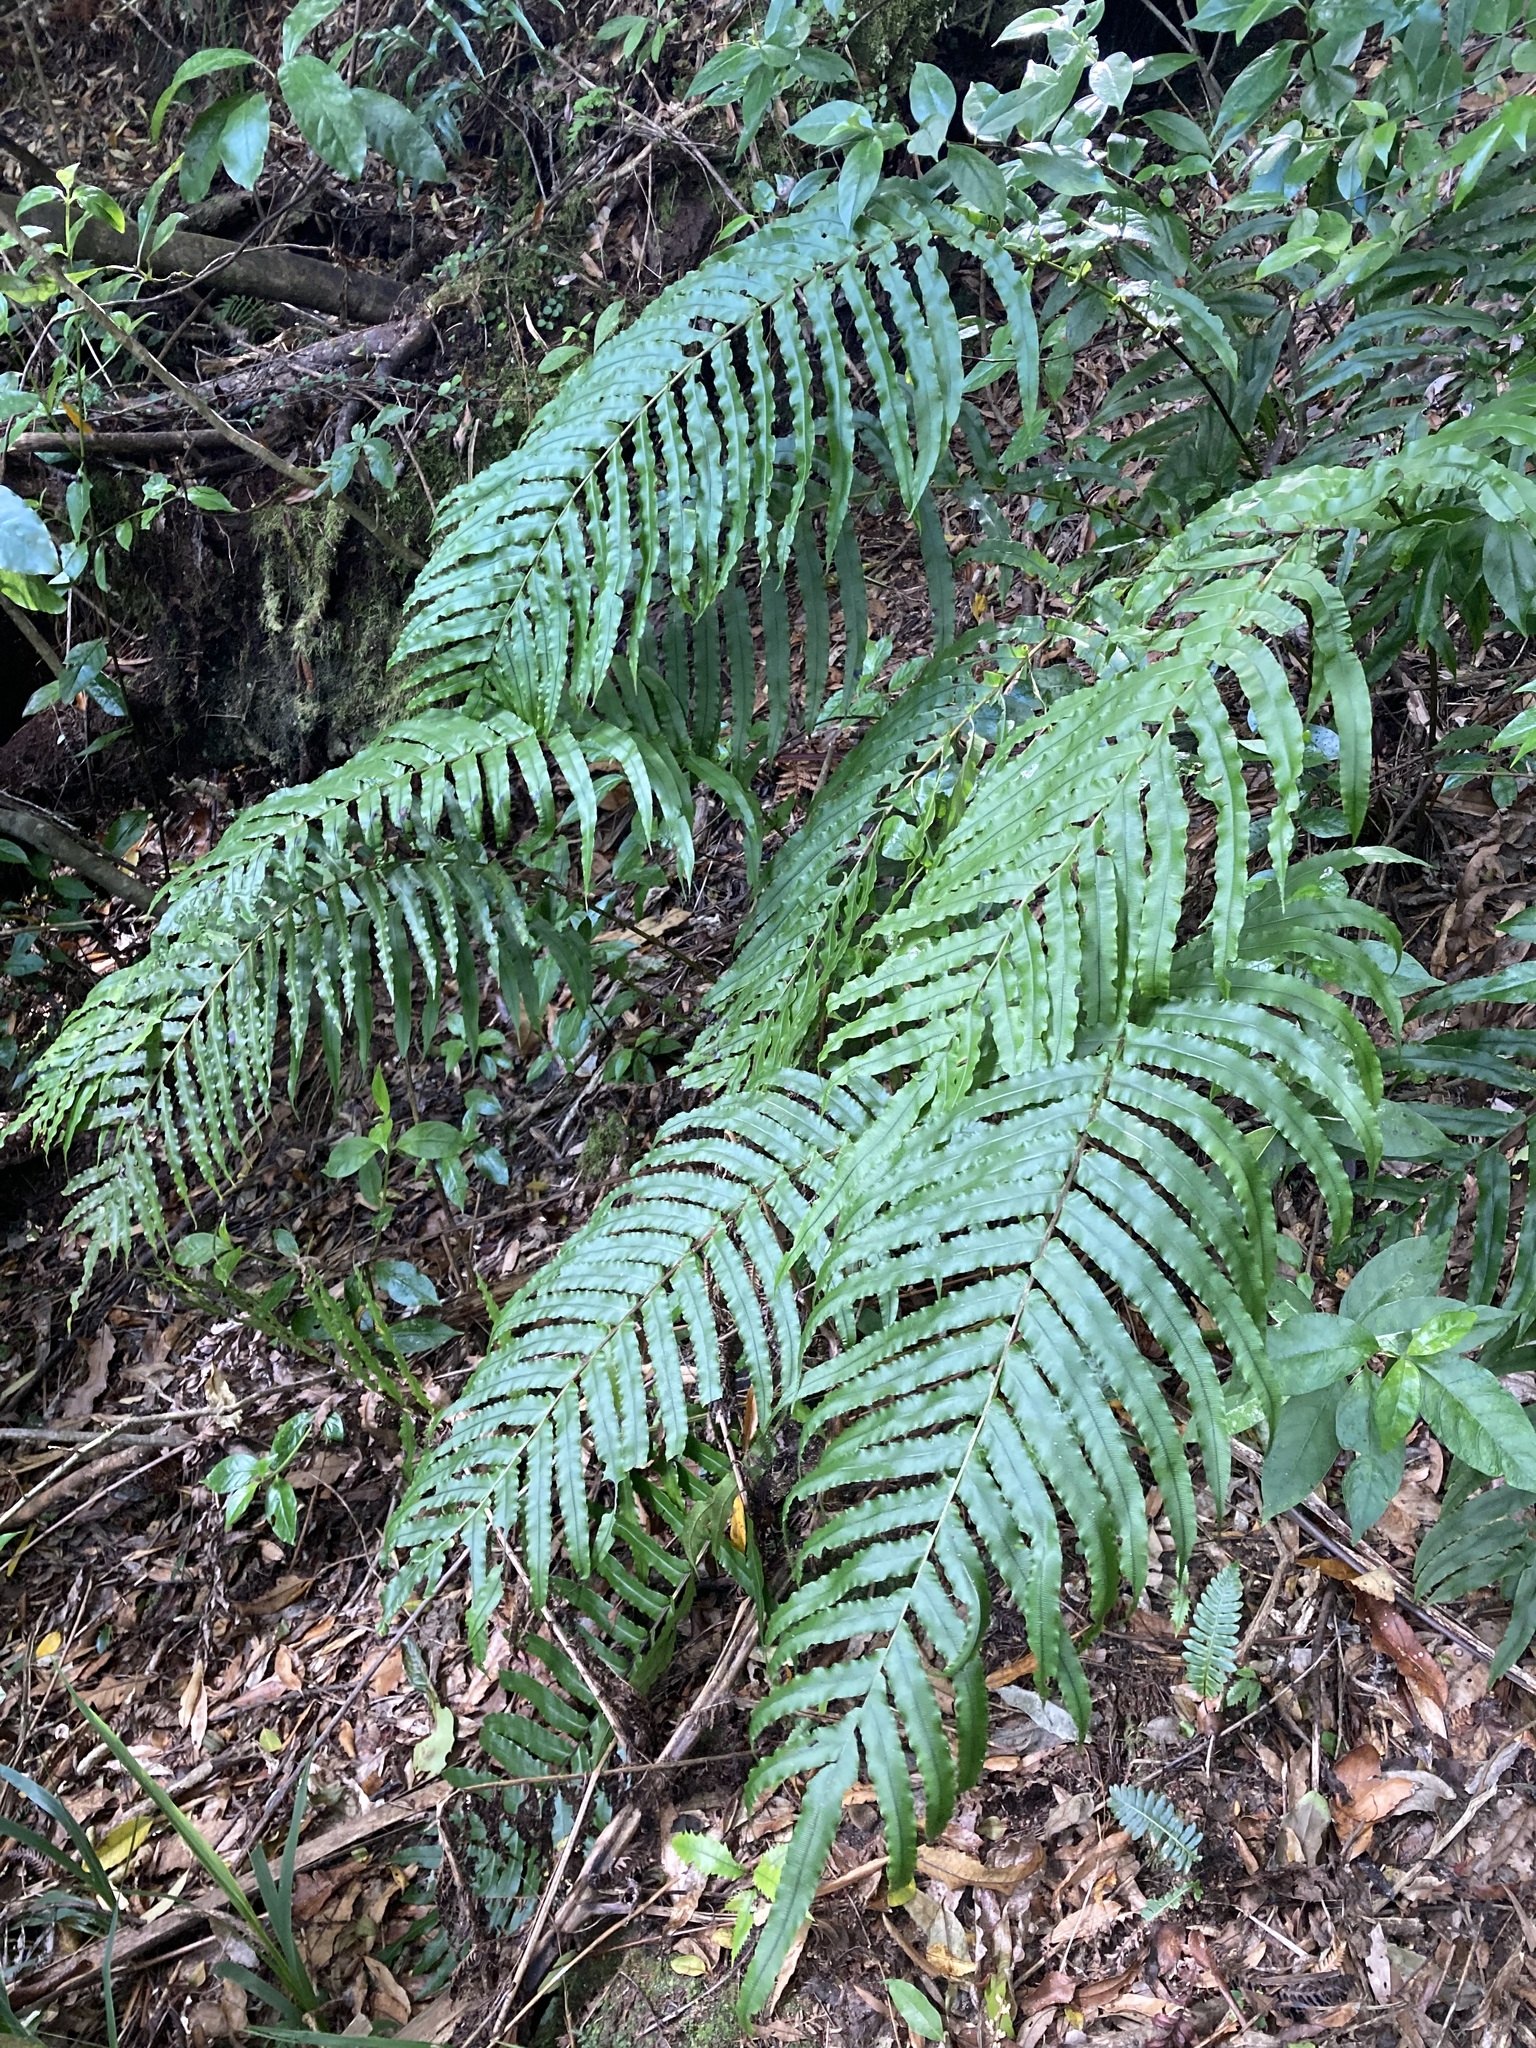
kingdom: Plantae
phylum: Tracheophyta
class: Polypodiopsida
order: Polypodiales
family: Blechnaceae
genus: Parablechnum
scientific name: Parablechnum novae-zelandiae
